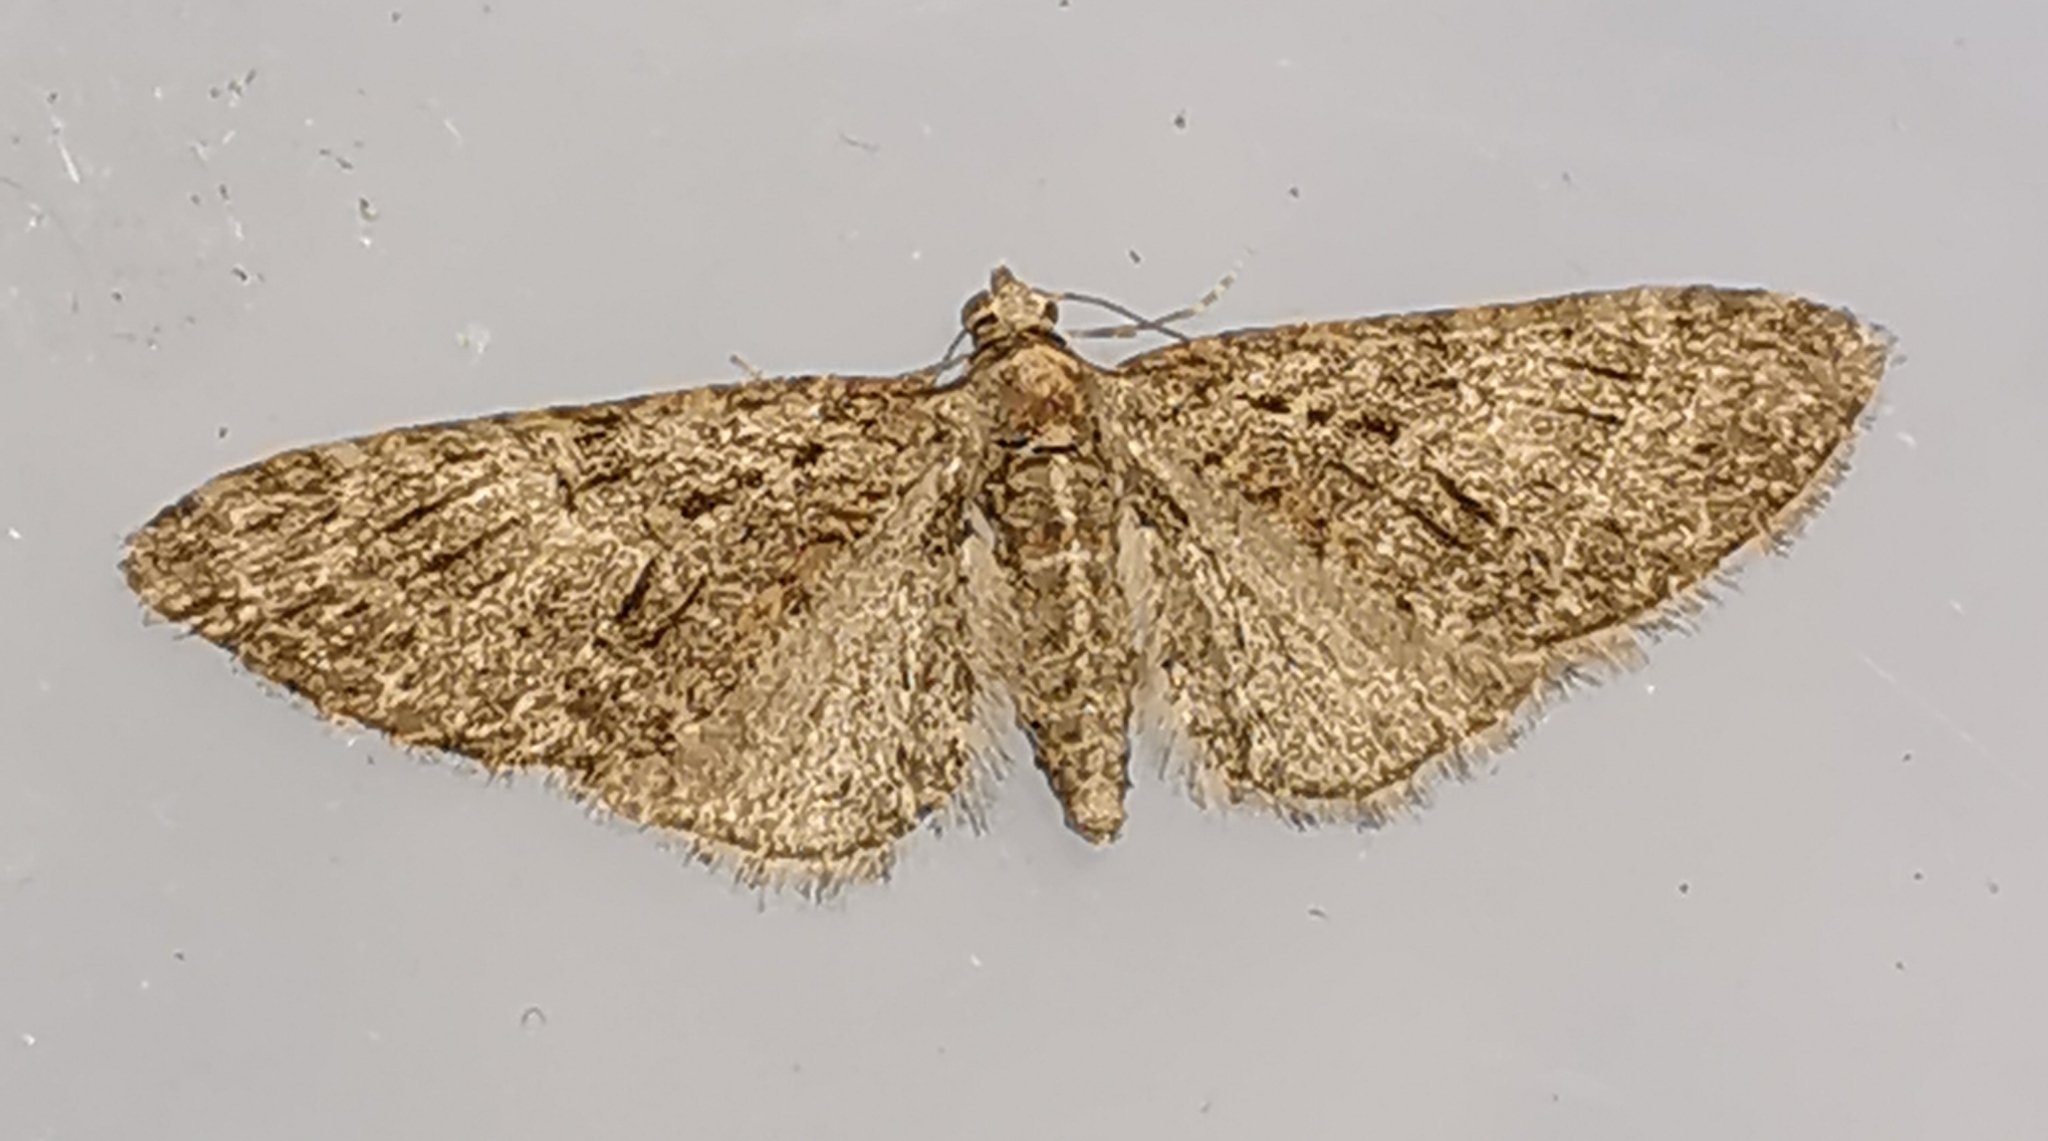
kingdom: Animalia
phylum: Arthropoda
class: Insecta
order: Lepidoptera
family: Geometridae
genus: Eupithecia
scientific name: Eupithecia abbreviata
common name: Brindled pug
